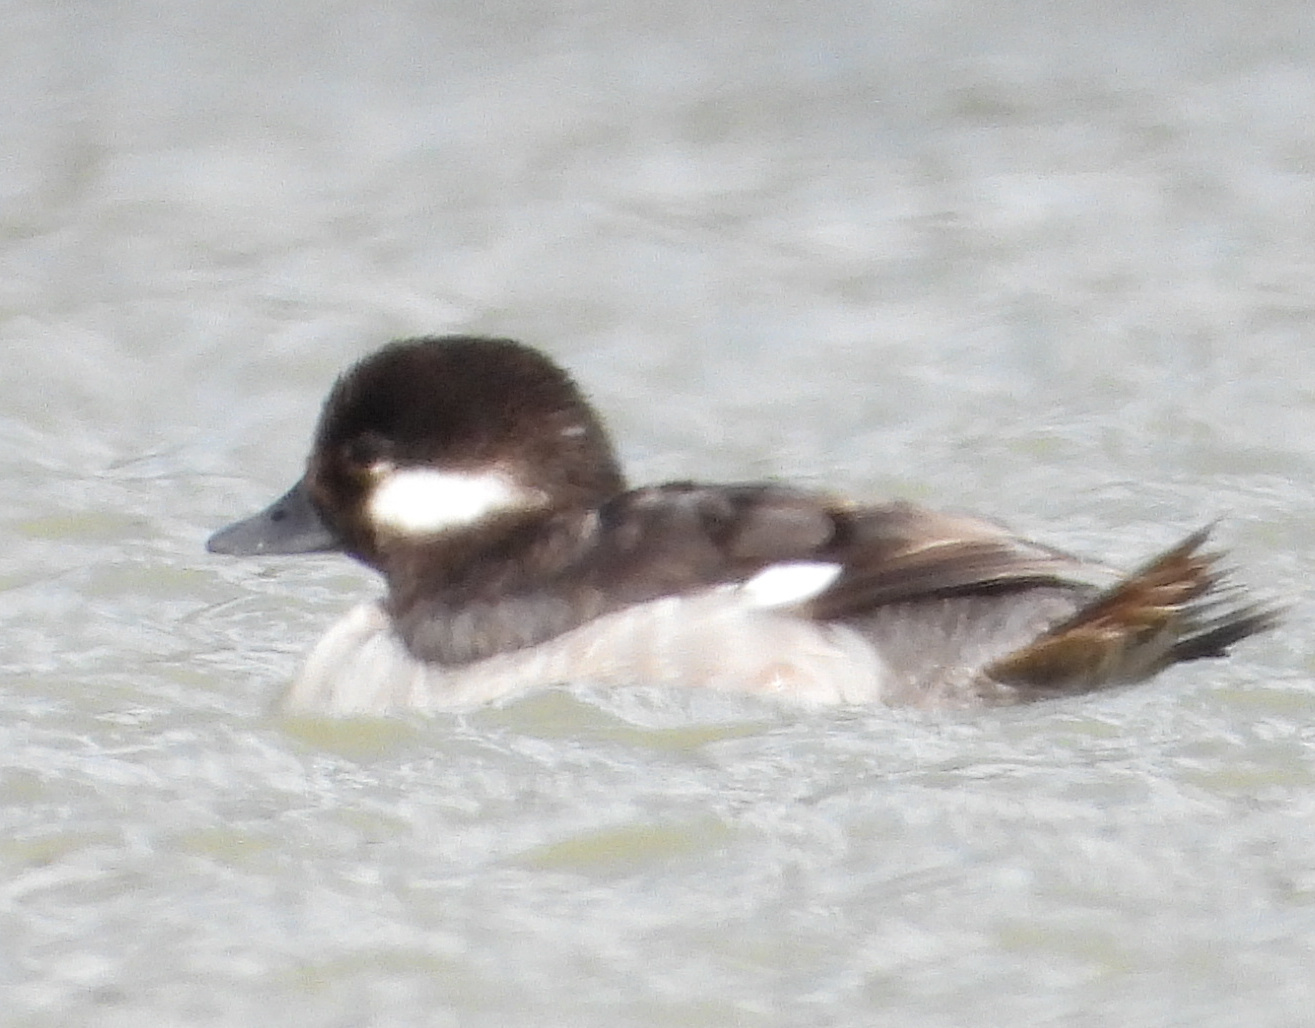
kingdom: Animalia
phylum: Chordata
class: Aves
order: Anseriformes
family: Anatidae
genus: Bucephala
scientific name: Bucephala albeola
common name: Bufflehead
